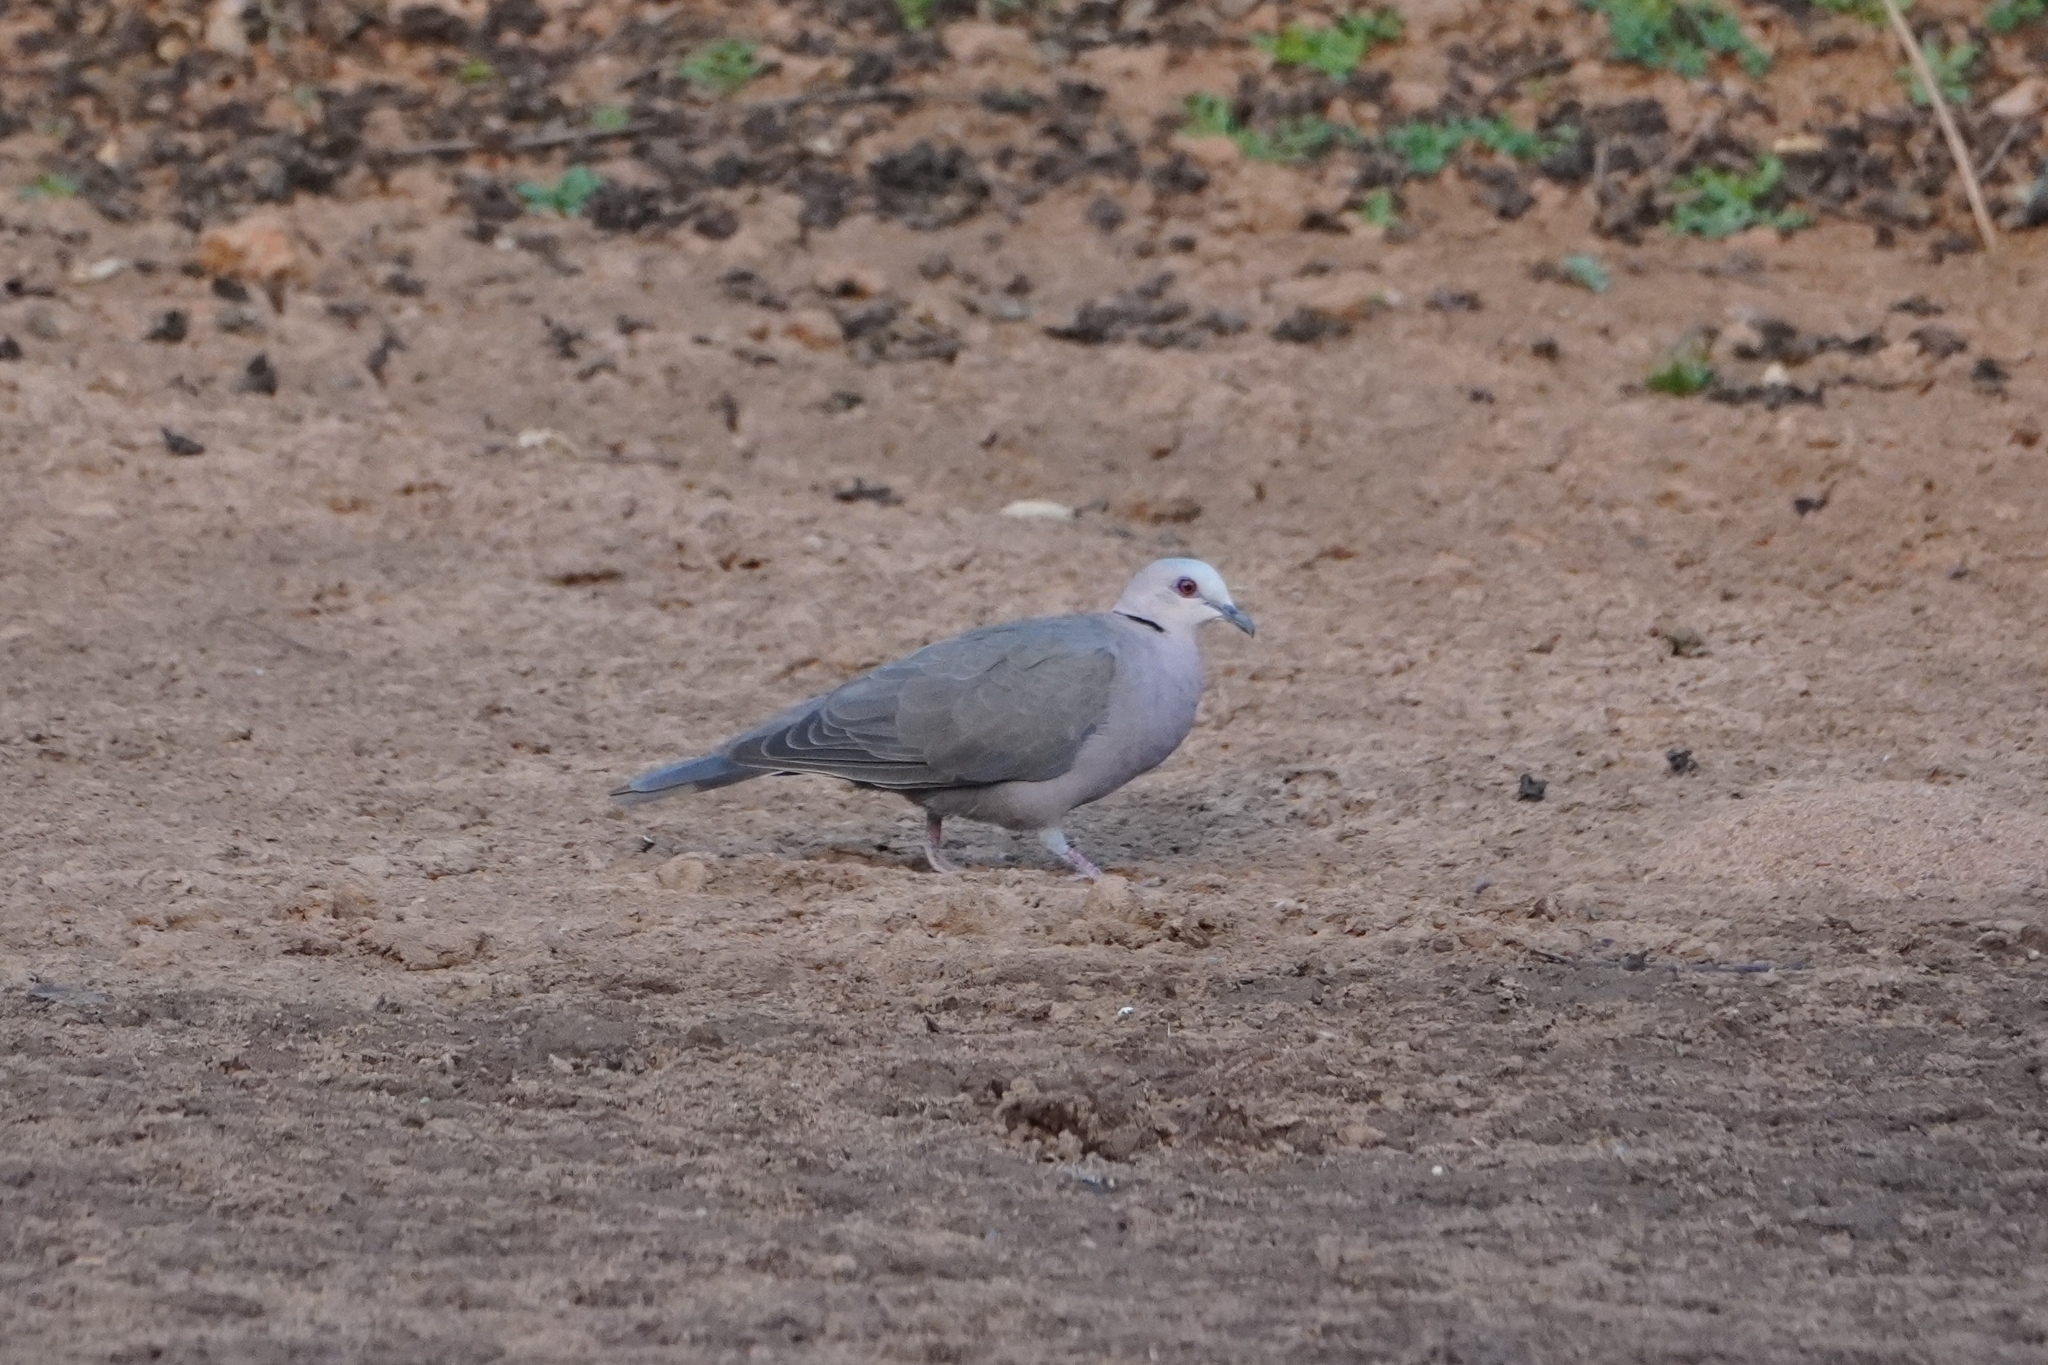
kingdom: Animalia
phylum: Chordata
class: Aves
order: Columbiformes
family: Columbidae
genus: Streptopelia
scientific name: Streptopelia semitorquata
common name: Red-eyed dove
